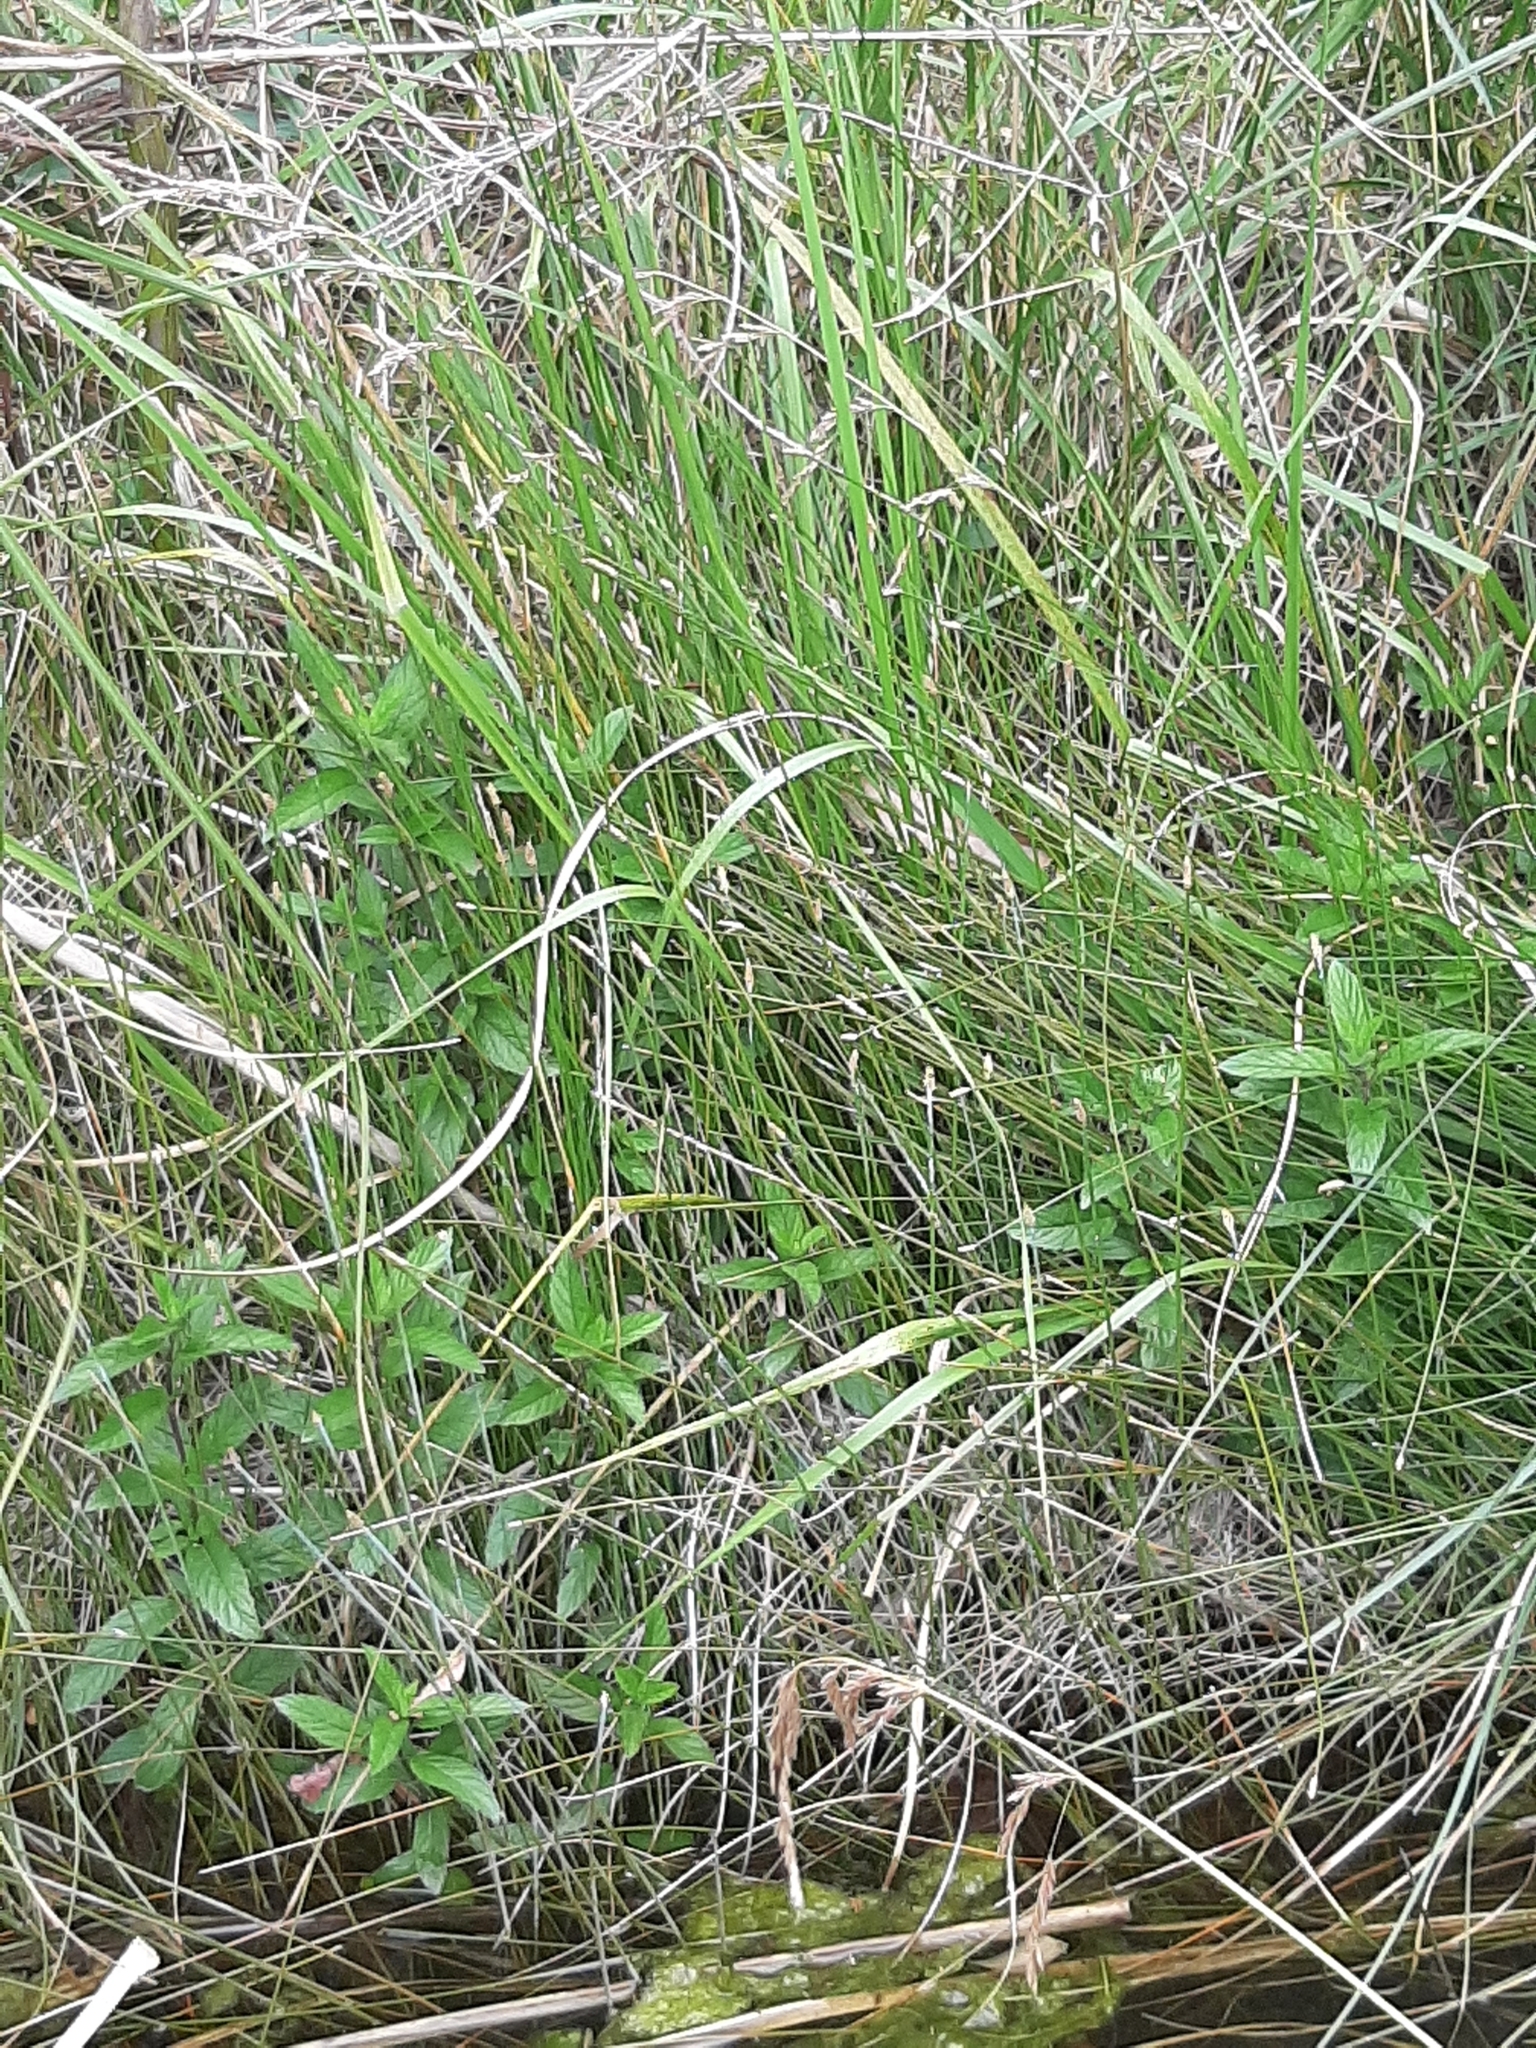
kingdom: Plantae
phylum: Tracheophyta
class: Liliopsida
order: Poales
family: Cyperaceae
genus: Eleocharis
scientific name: Eleocharis acuta
